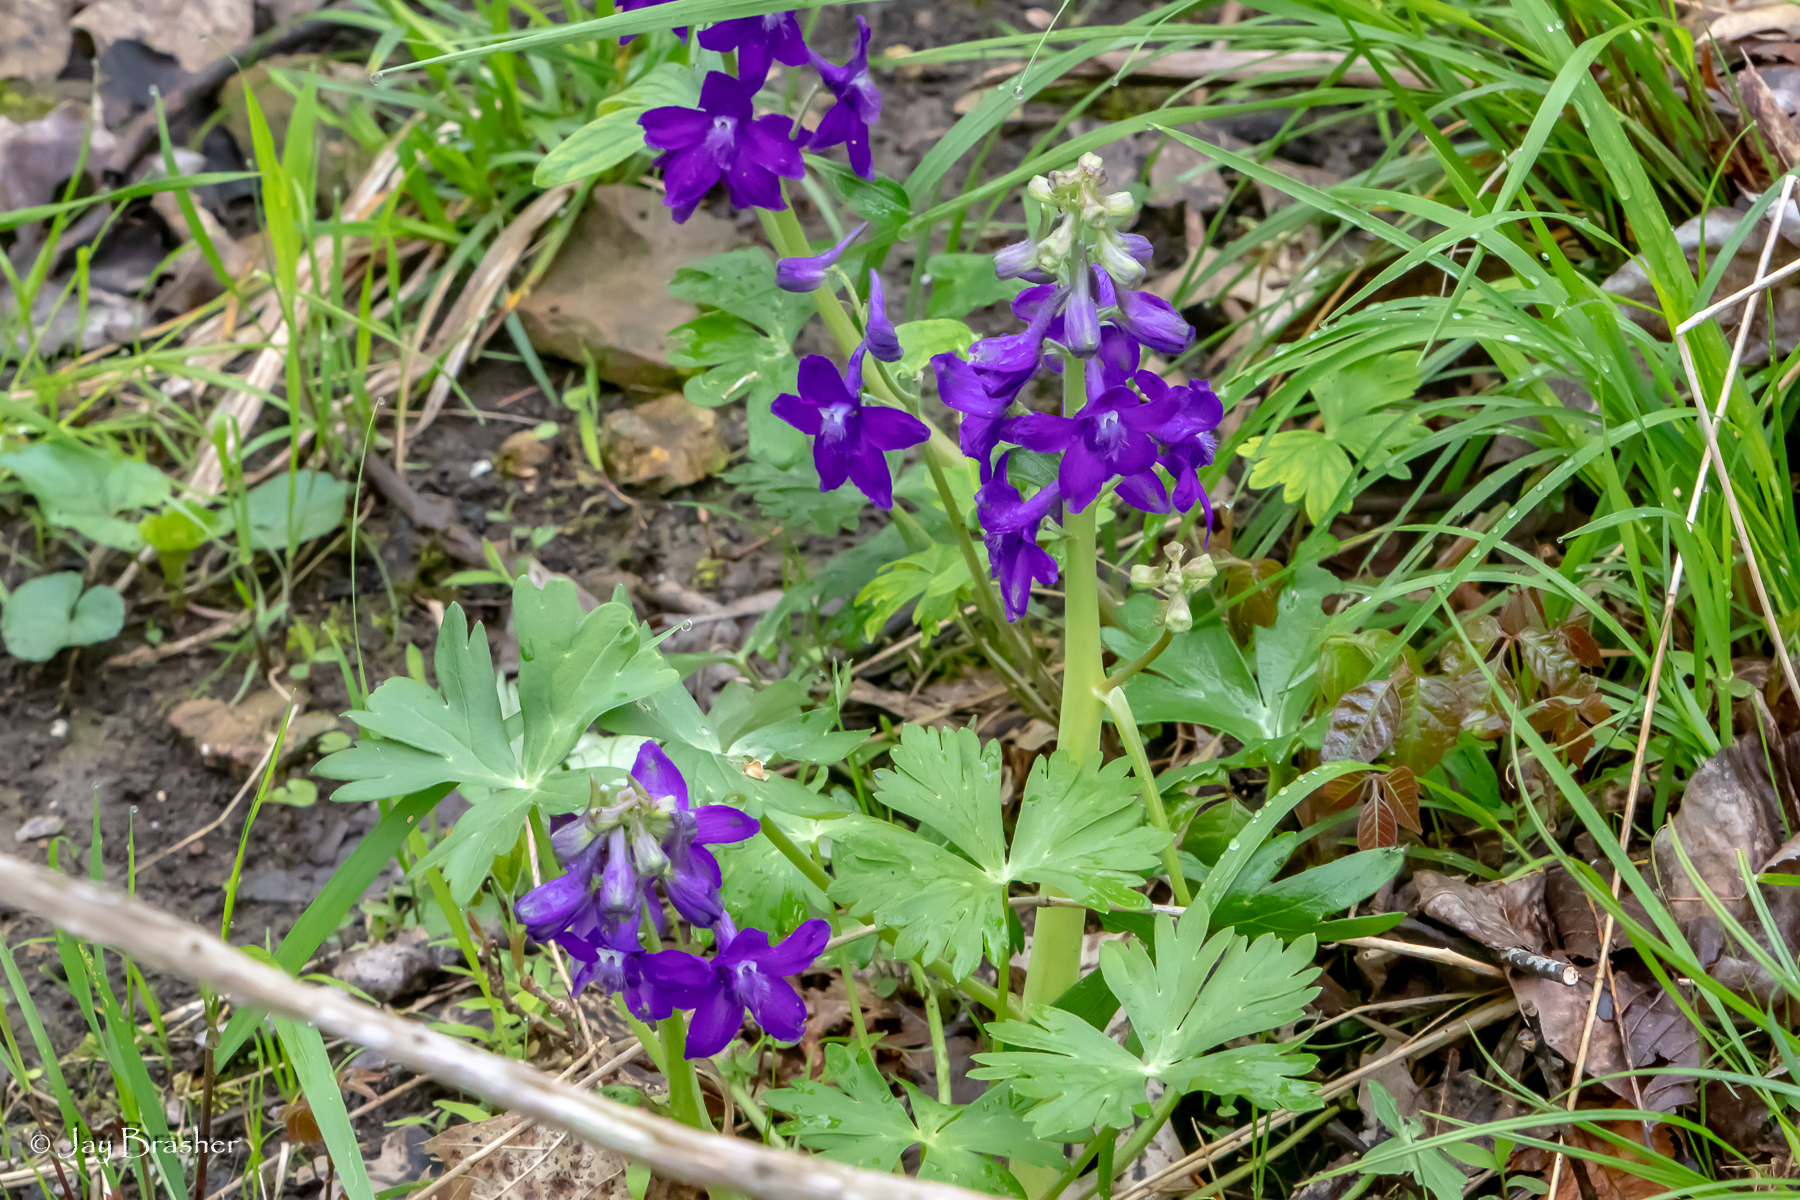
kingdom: Plantae
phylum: Tracheophyta
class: Magnoliopsida
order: Ranunculales
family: Ranunculaceae
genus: Delphinium
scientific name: Delphinium tricorne
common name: Dwarf larkspur
